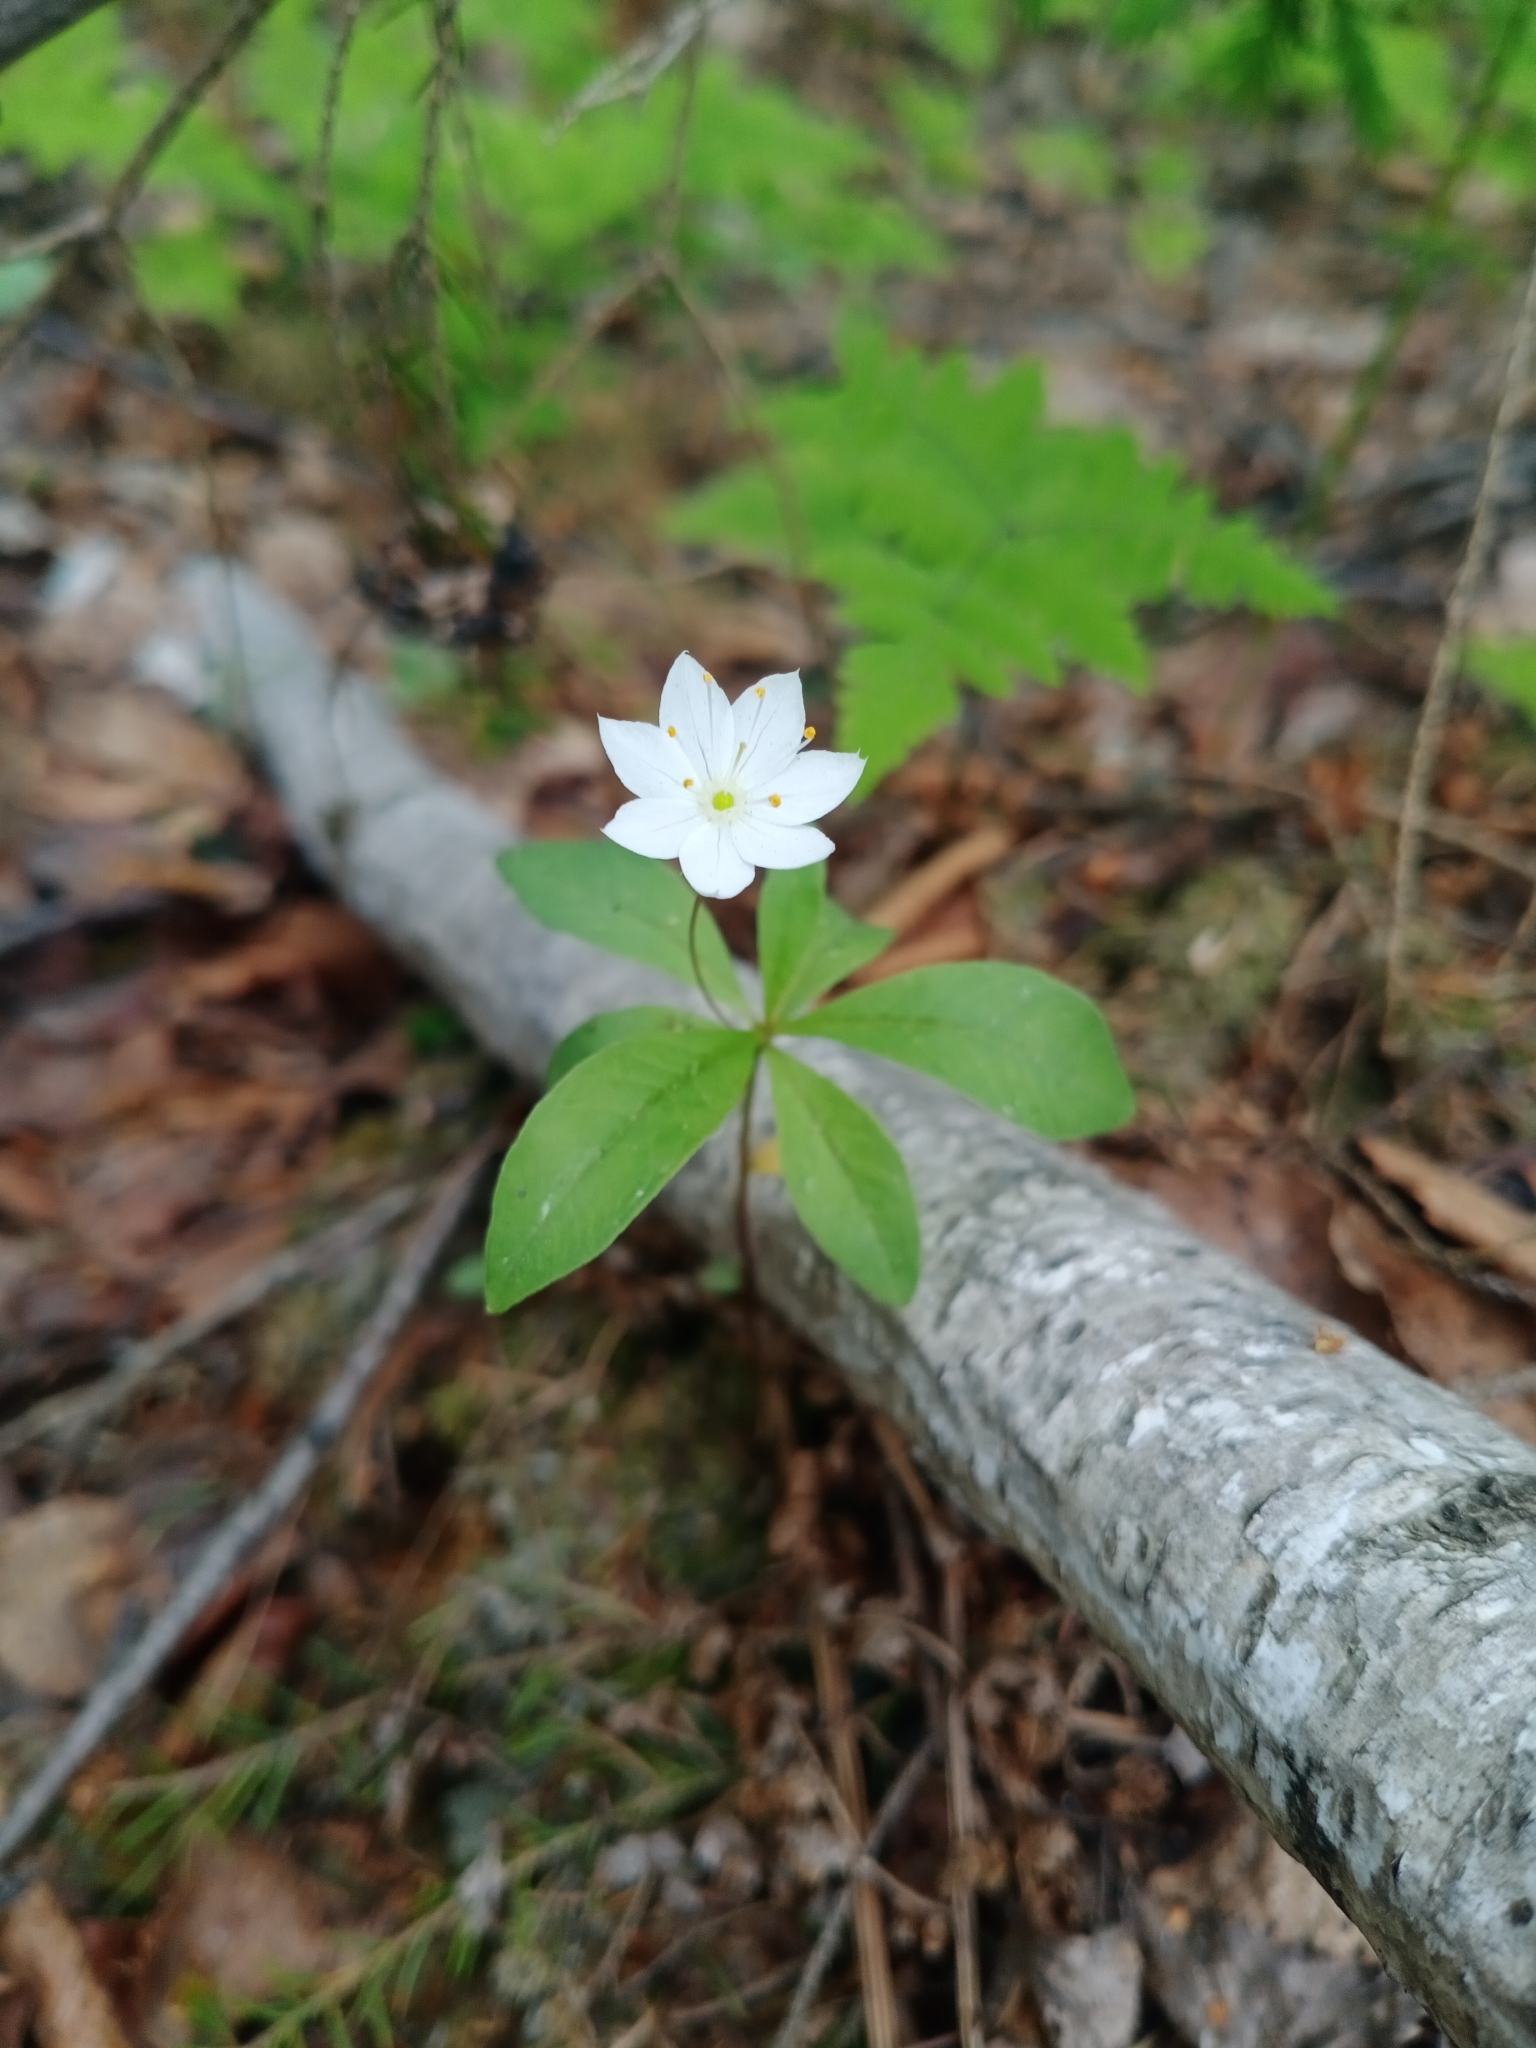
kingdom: Plantae
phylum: Tracheophyta
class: Magnoliopsida
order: Ericales
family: Primulaceae
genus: Lysimachia
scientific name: Lysimachia europaea
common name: Arctic starflower
